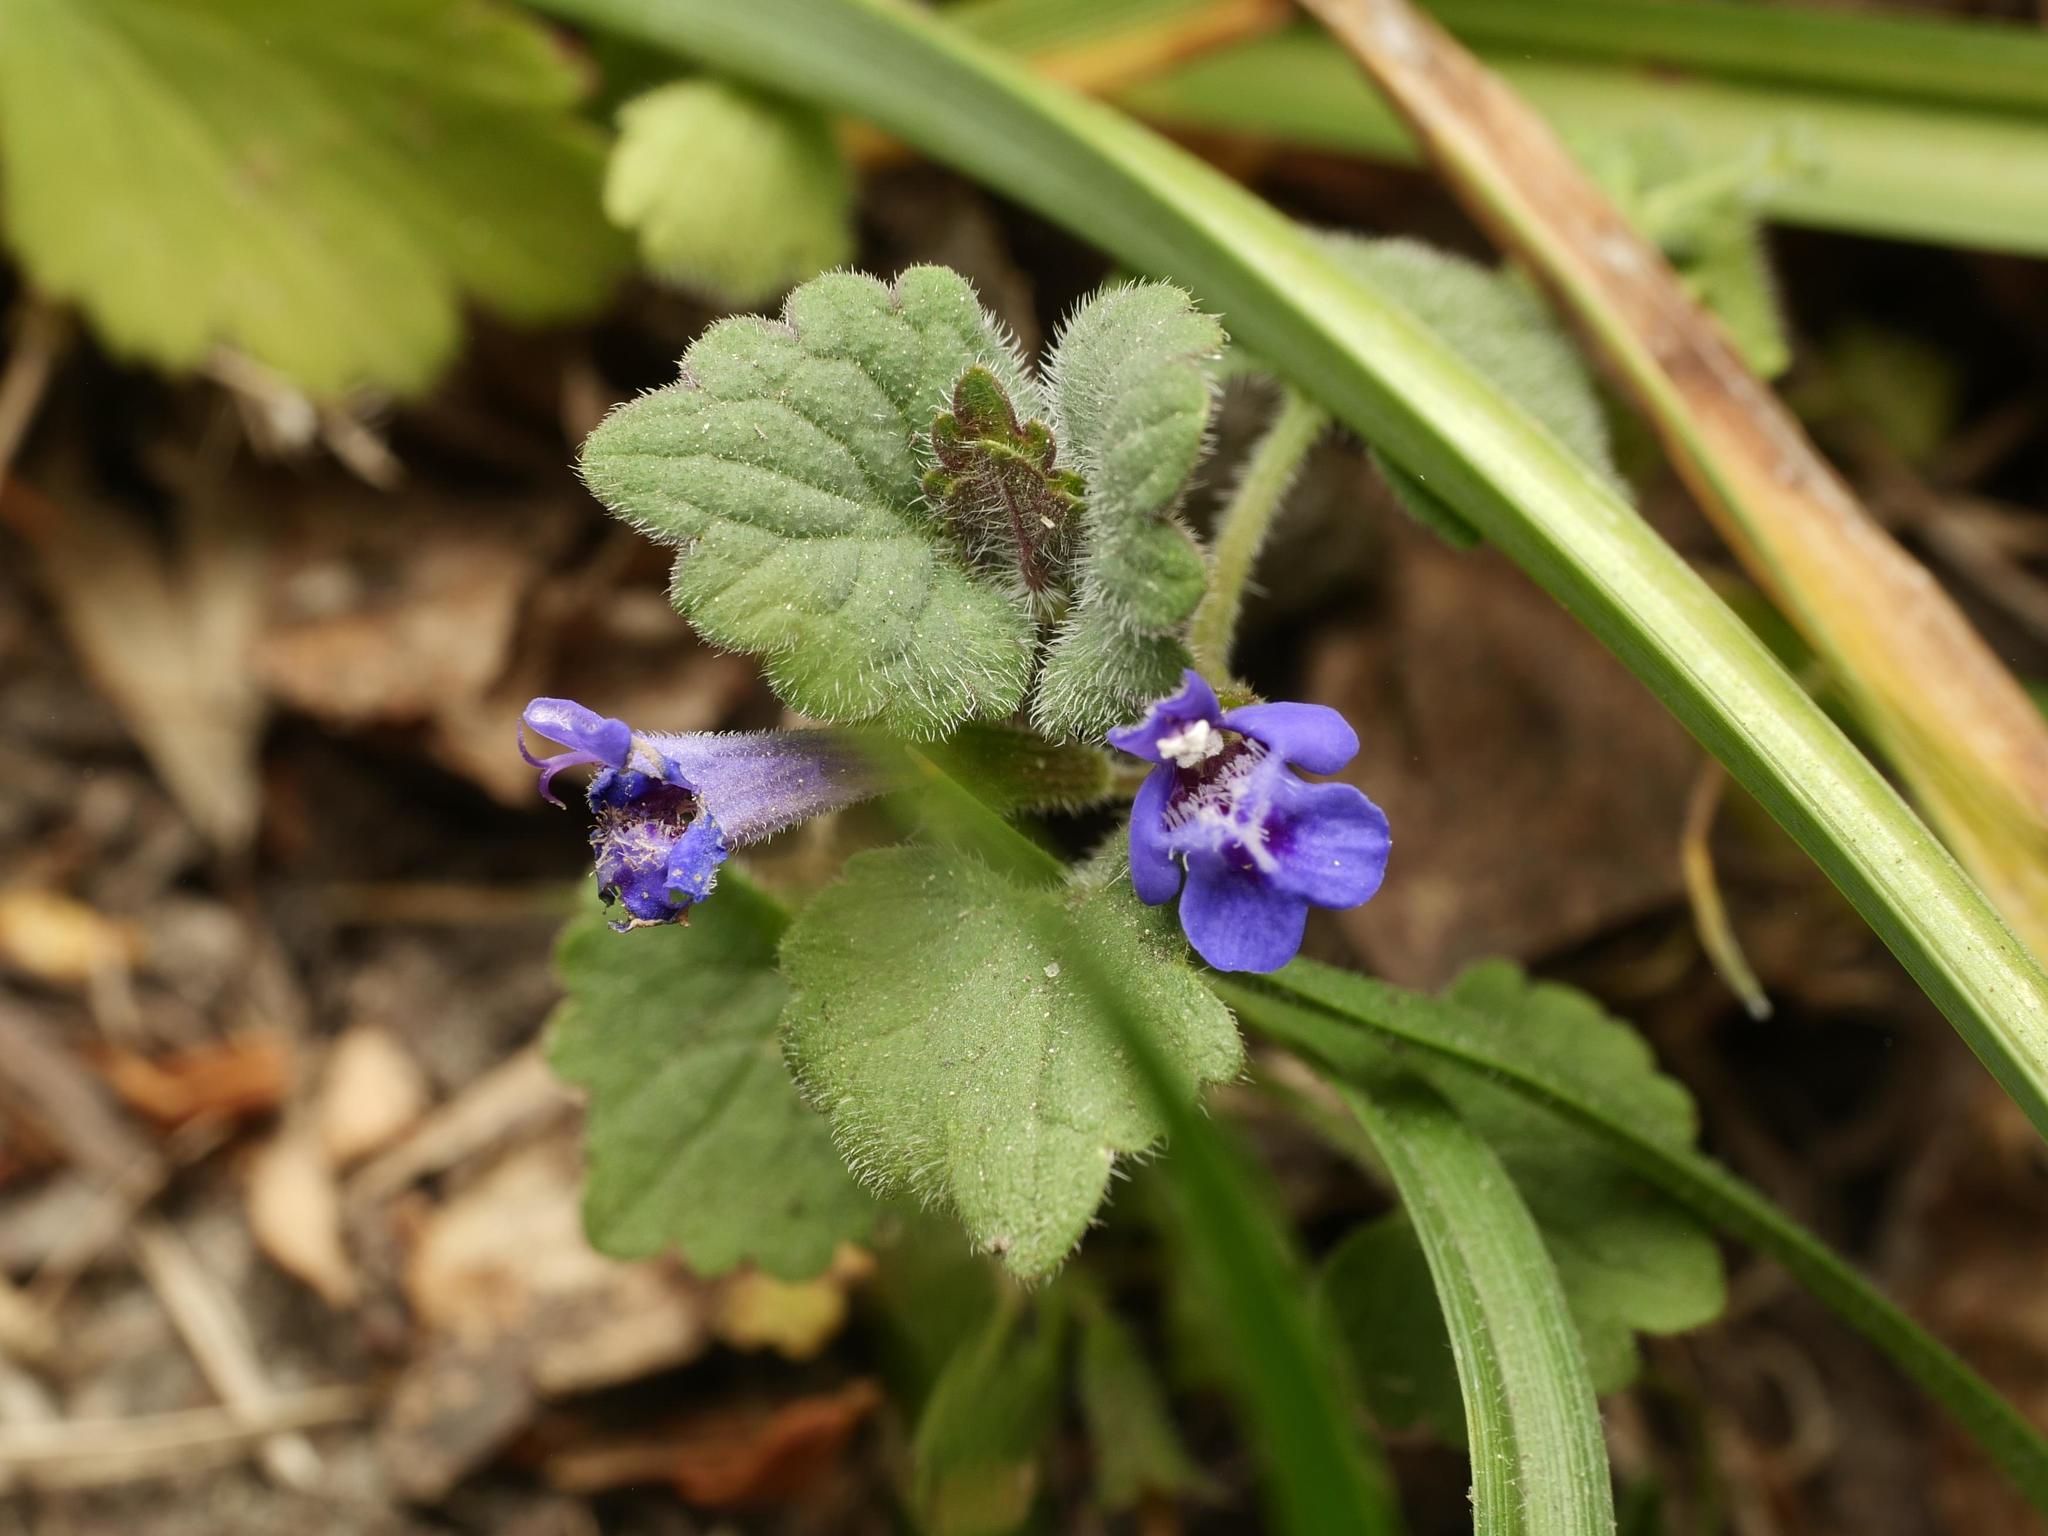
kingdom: Plantae
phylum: Tracheophyta
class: Magnoliopsida
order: Lamiales
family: Lamiaceae
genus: Glechoma
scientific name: Glechoma hederacea
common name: Ground ivy
